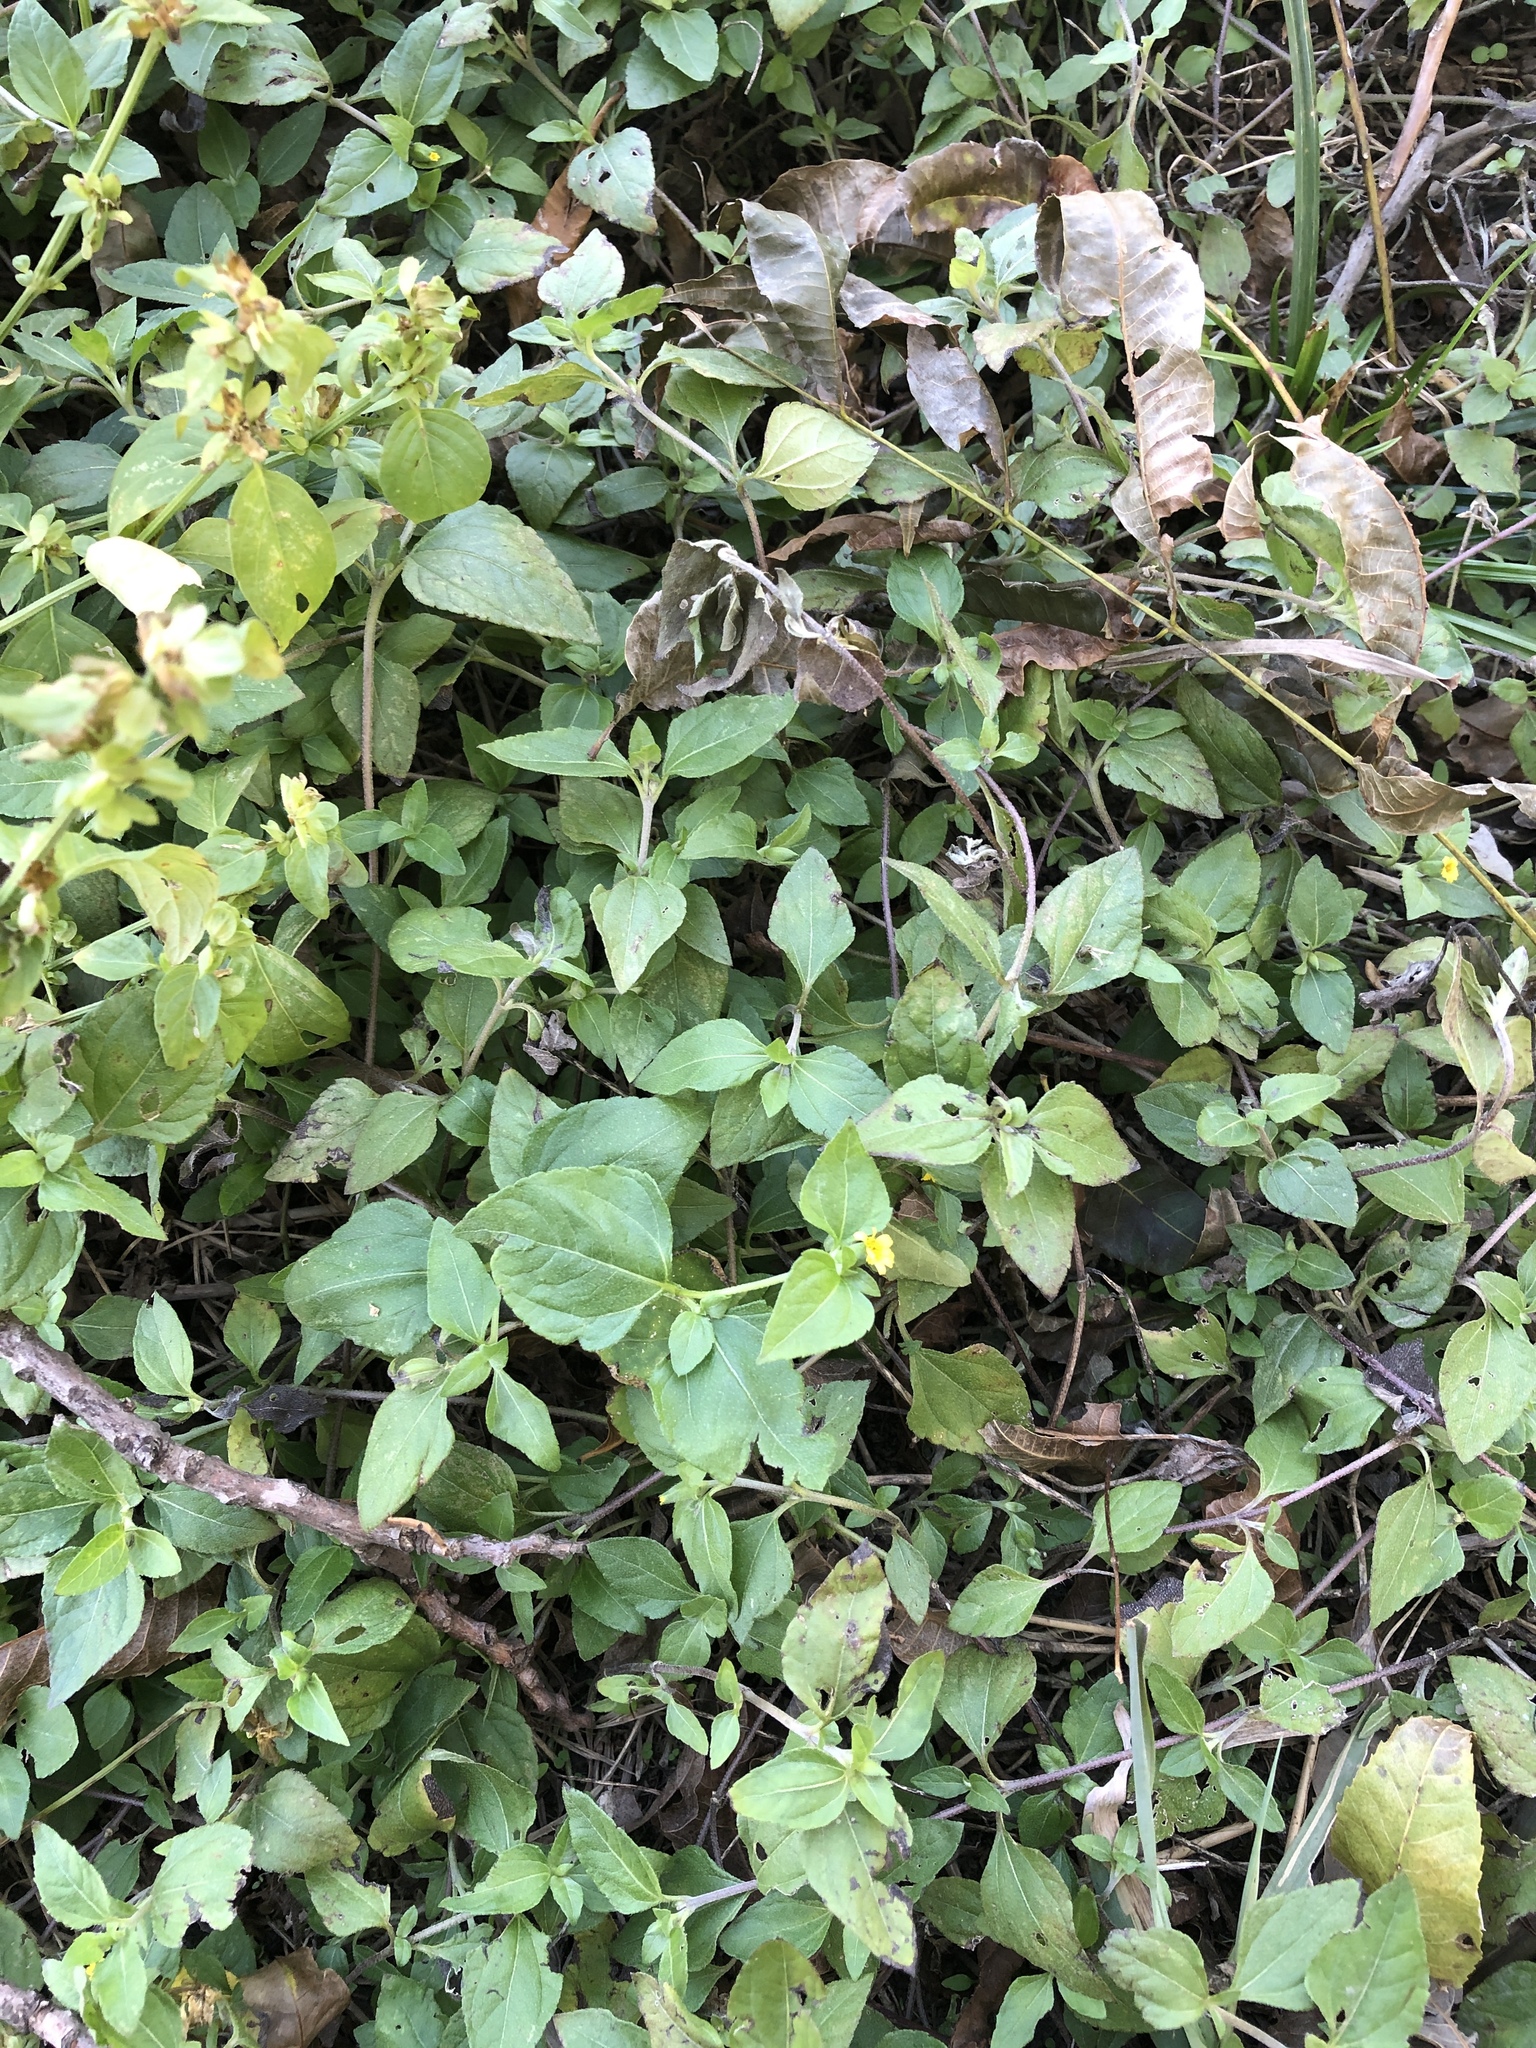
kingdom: Plantae
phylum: Tracheophyta
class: Magnoliopsida
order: Asterales
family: Asteraceae
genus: Calyptocarpus
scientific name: Calyptocarpus vialis
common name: Straggler daisy
